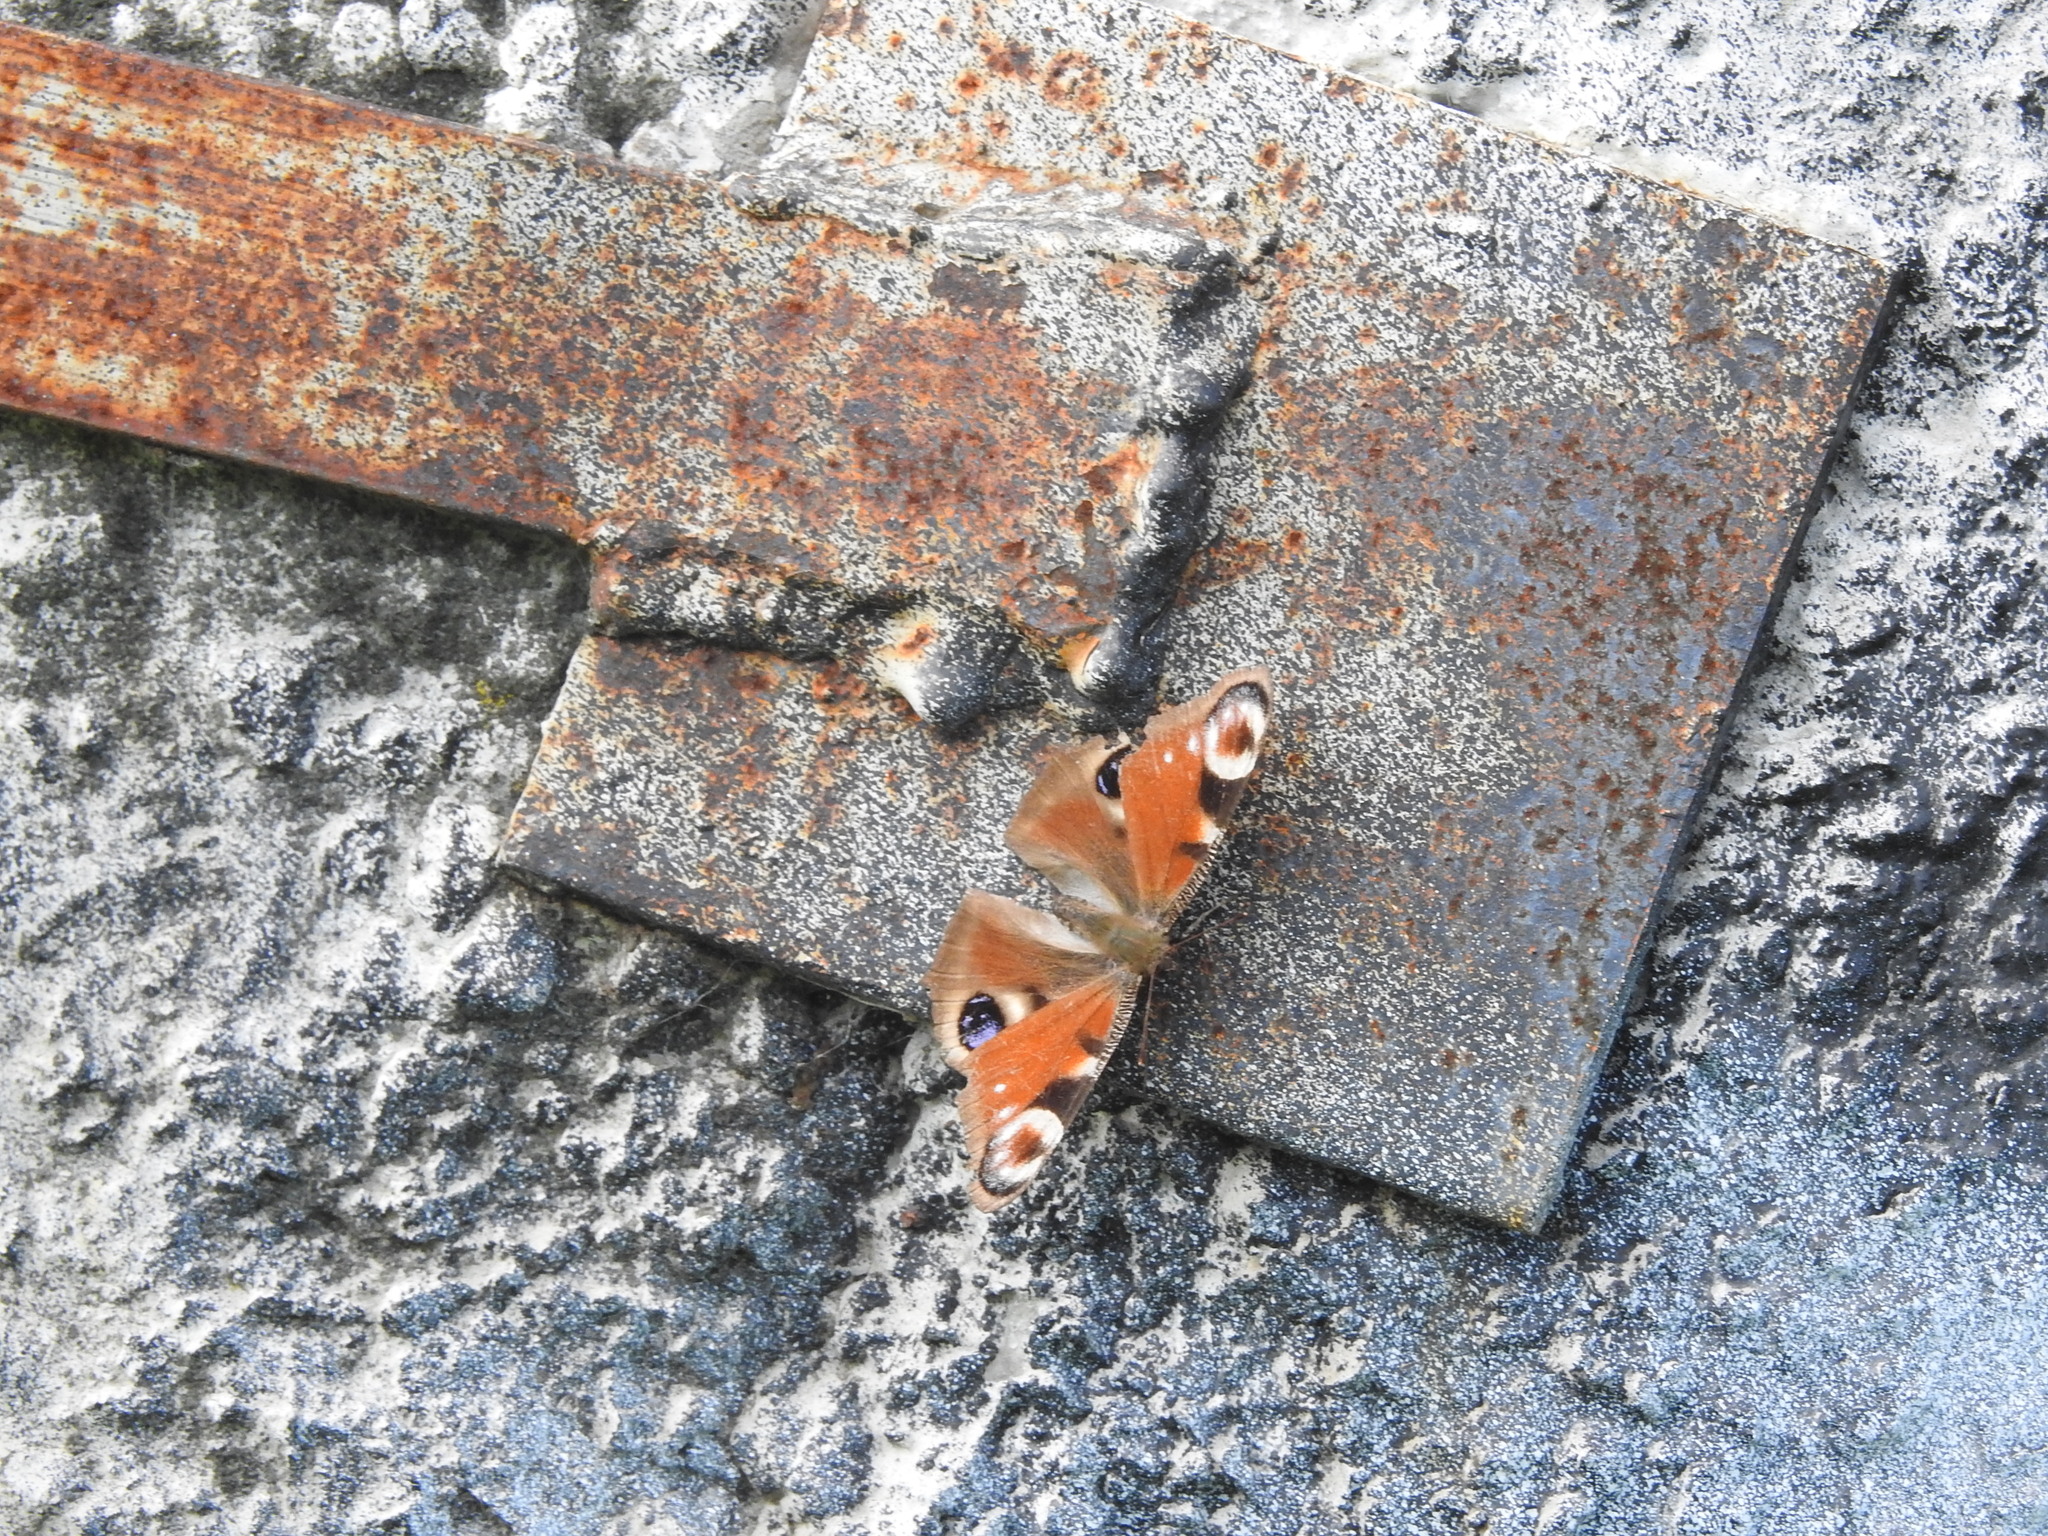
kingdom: Animalia
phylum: Arthropoda
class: Insecta
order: Lepidoptera
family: Nymphalidae
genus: Aglais
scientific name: Aglais io
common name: Peacock
